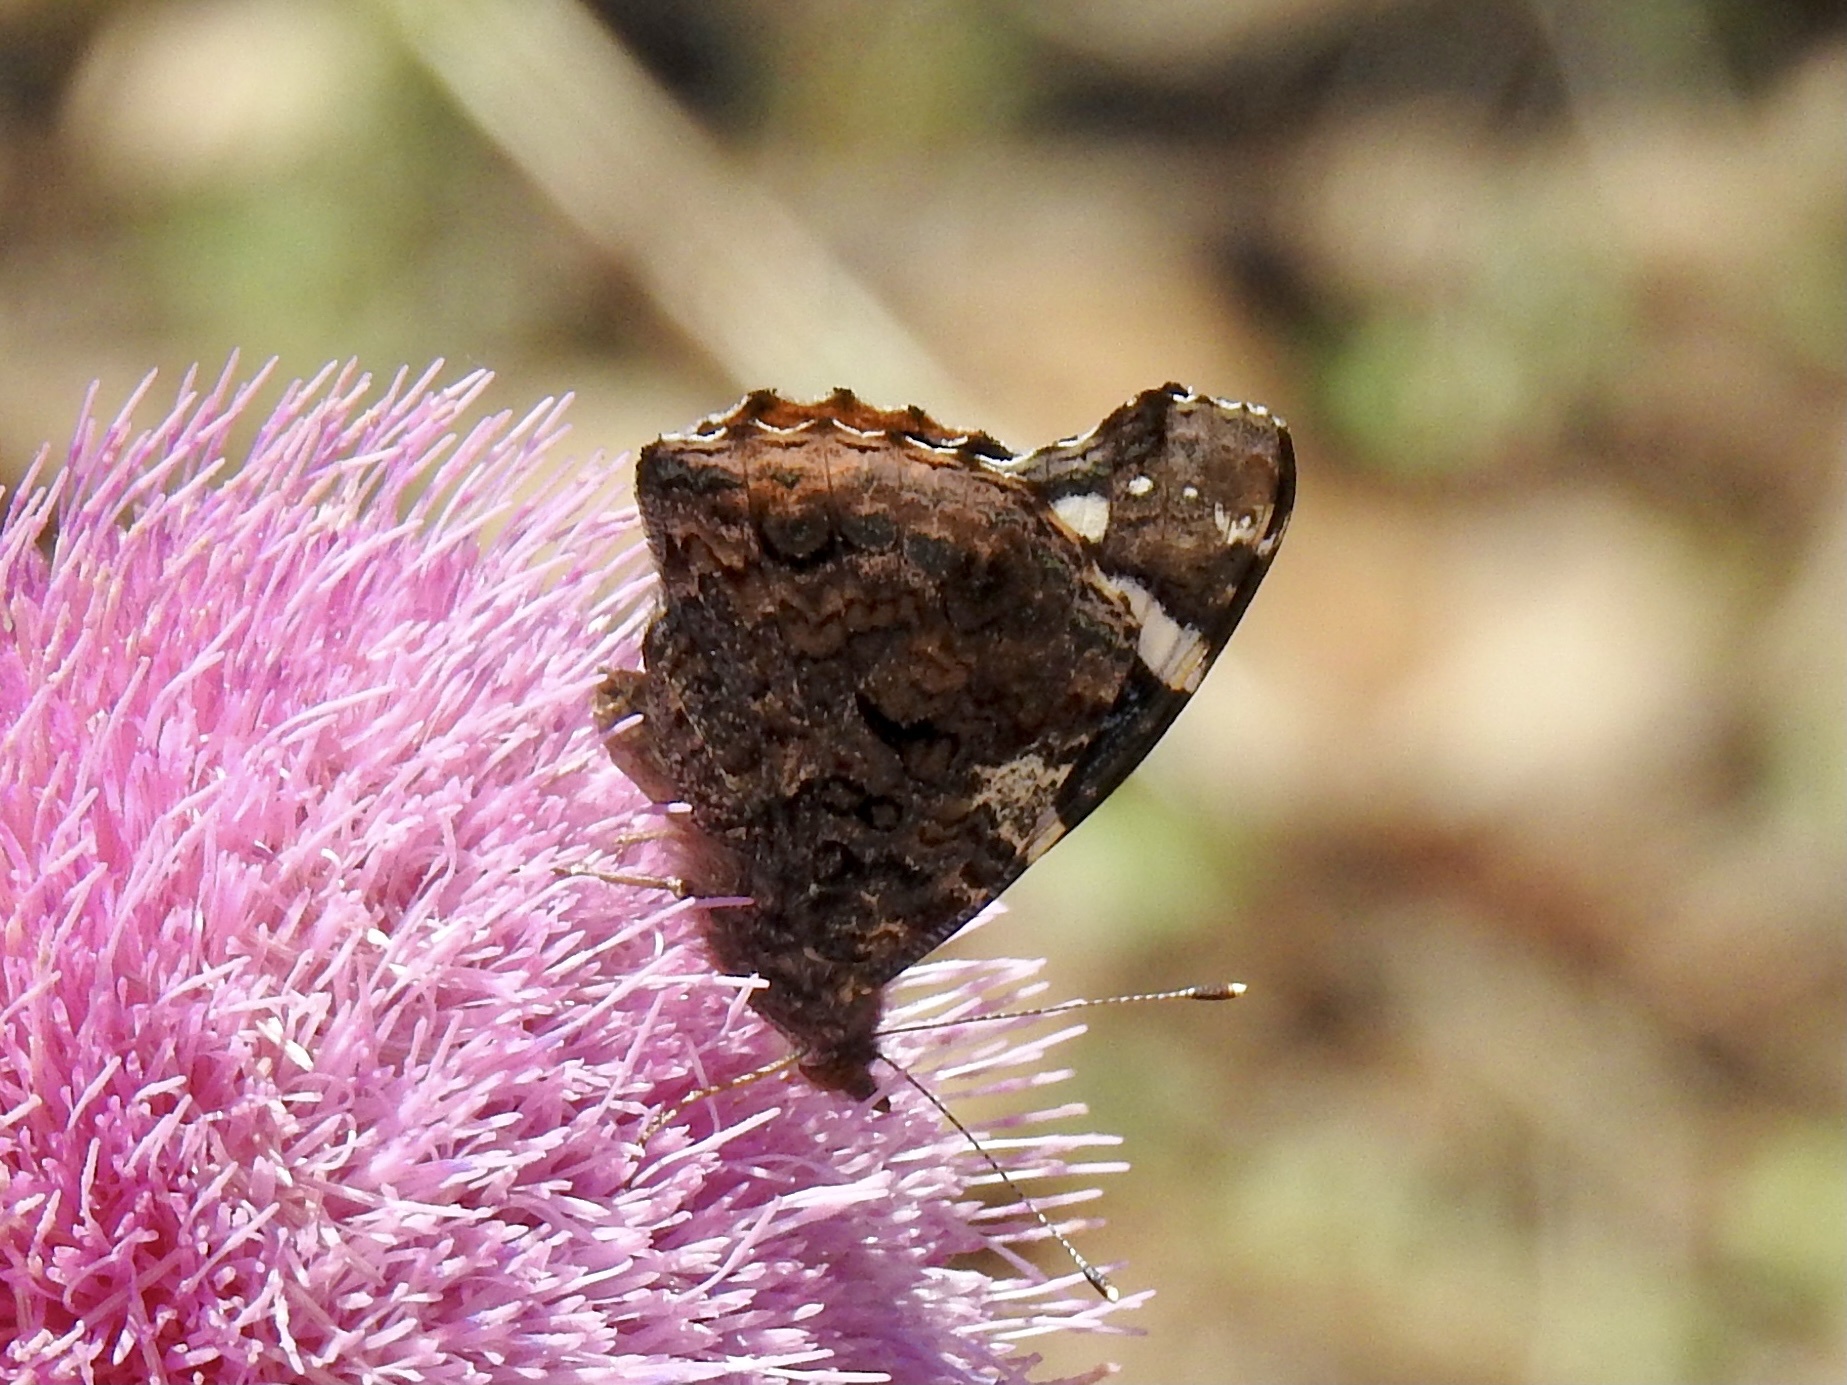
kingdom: Animalia
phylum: Arthropoda
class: Insecta
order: Lepidoptera
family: Nymphalidae
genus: Vanessa
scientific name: Vanessa atalanta
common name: Red admiral
